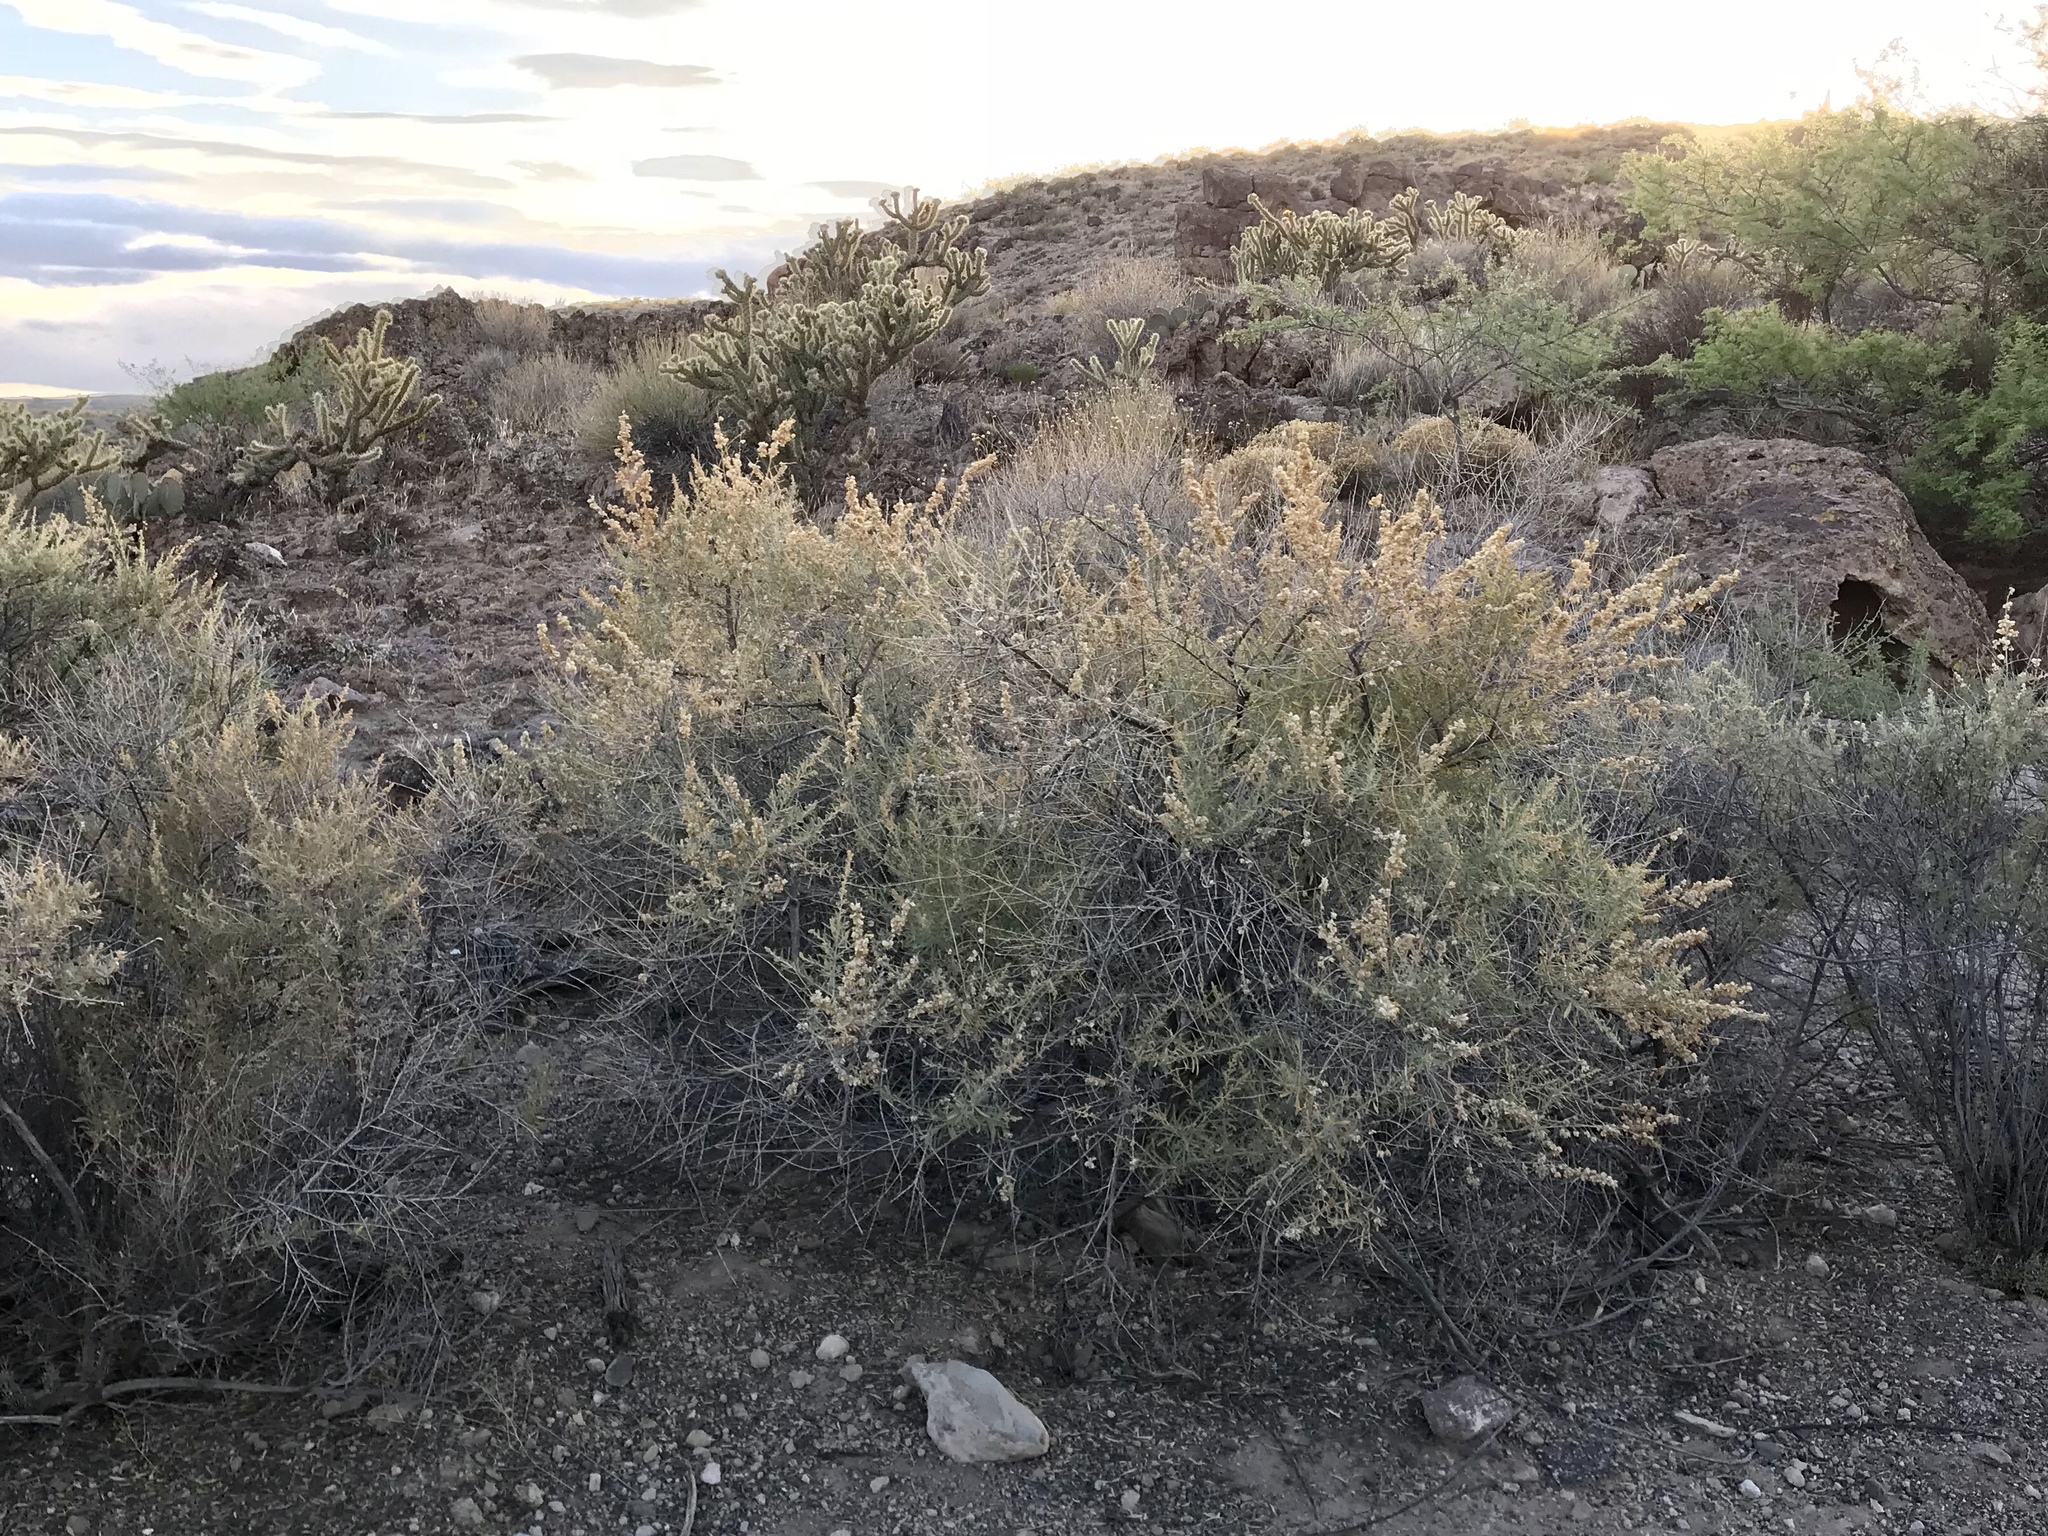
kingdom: Plantae
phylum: Tracheophyta
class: Magnoliopsida
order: Caryophyllales
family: Amaranthaceae
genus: Atriplex
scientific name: Atriplex canescens
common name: Four-wing saltbush
